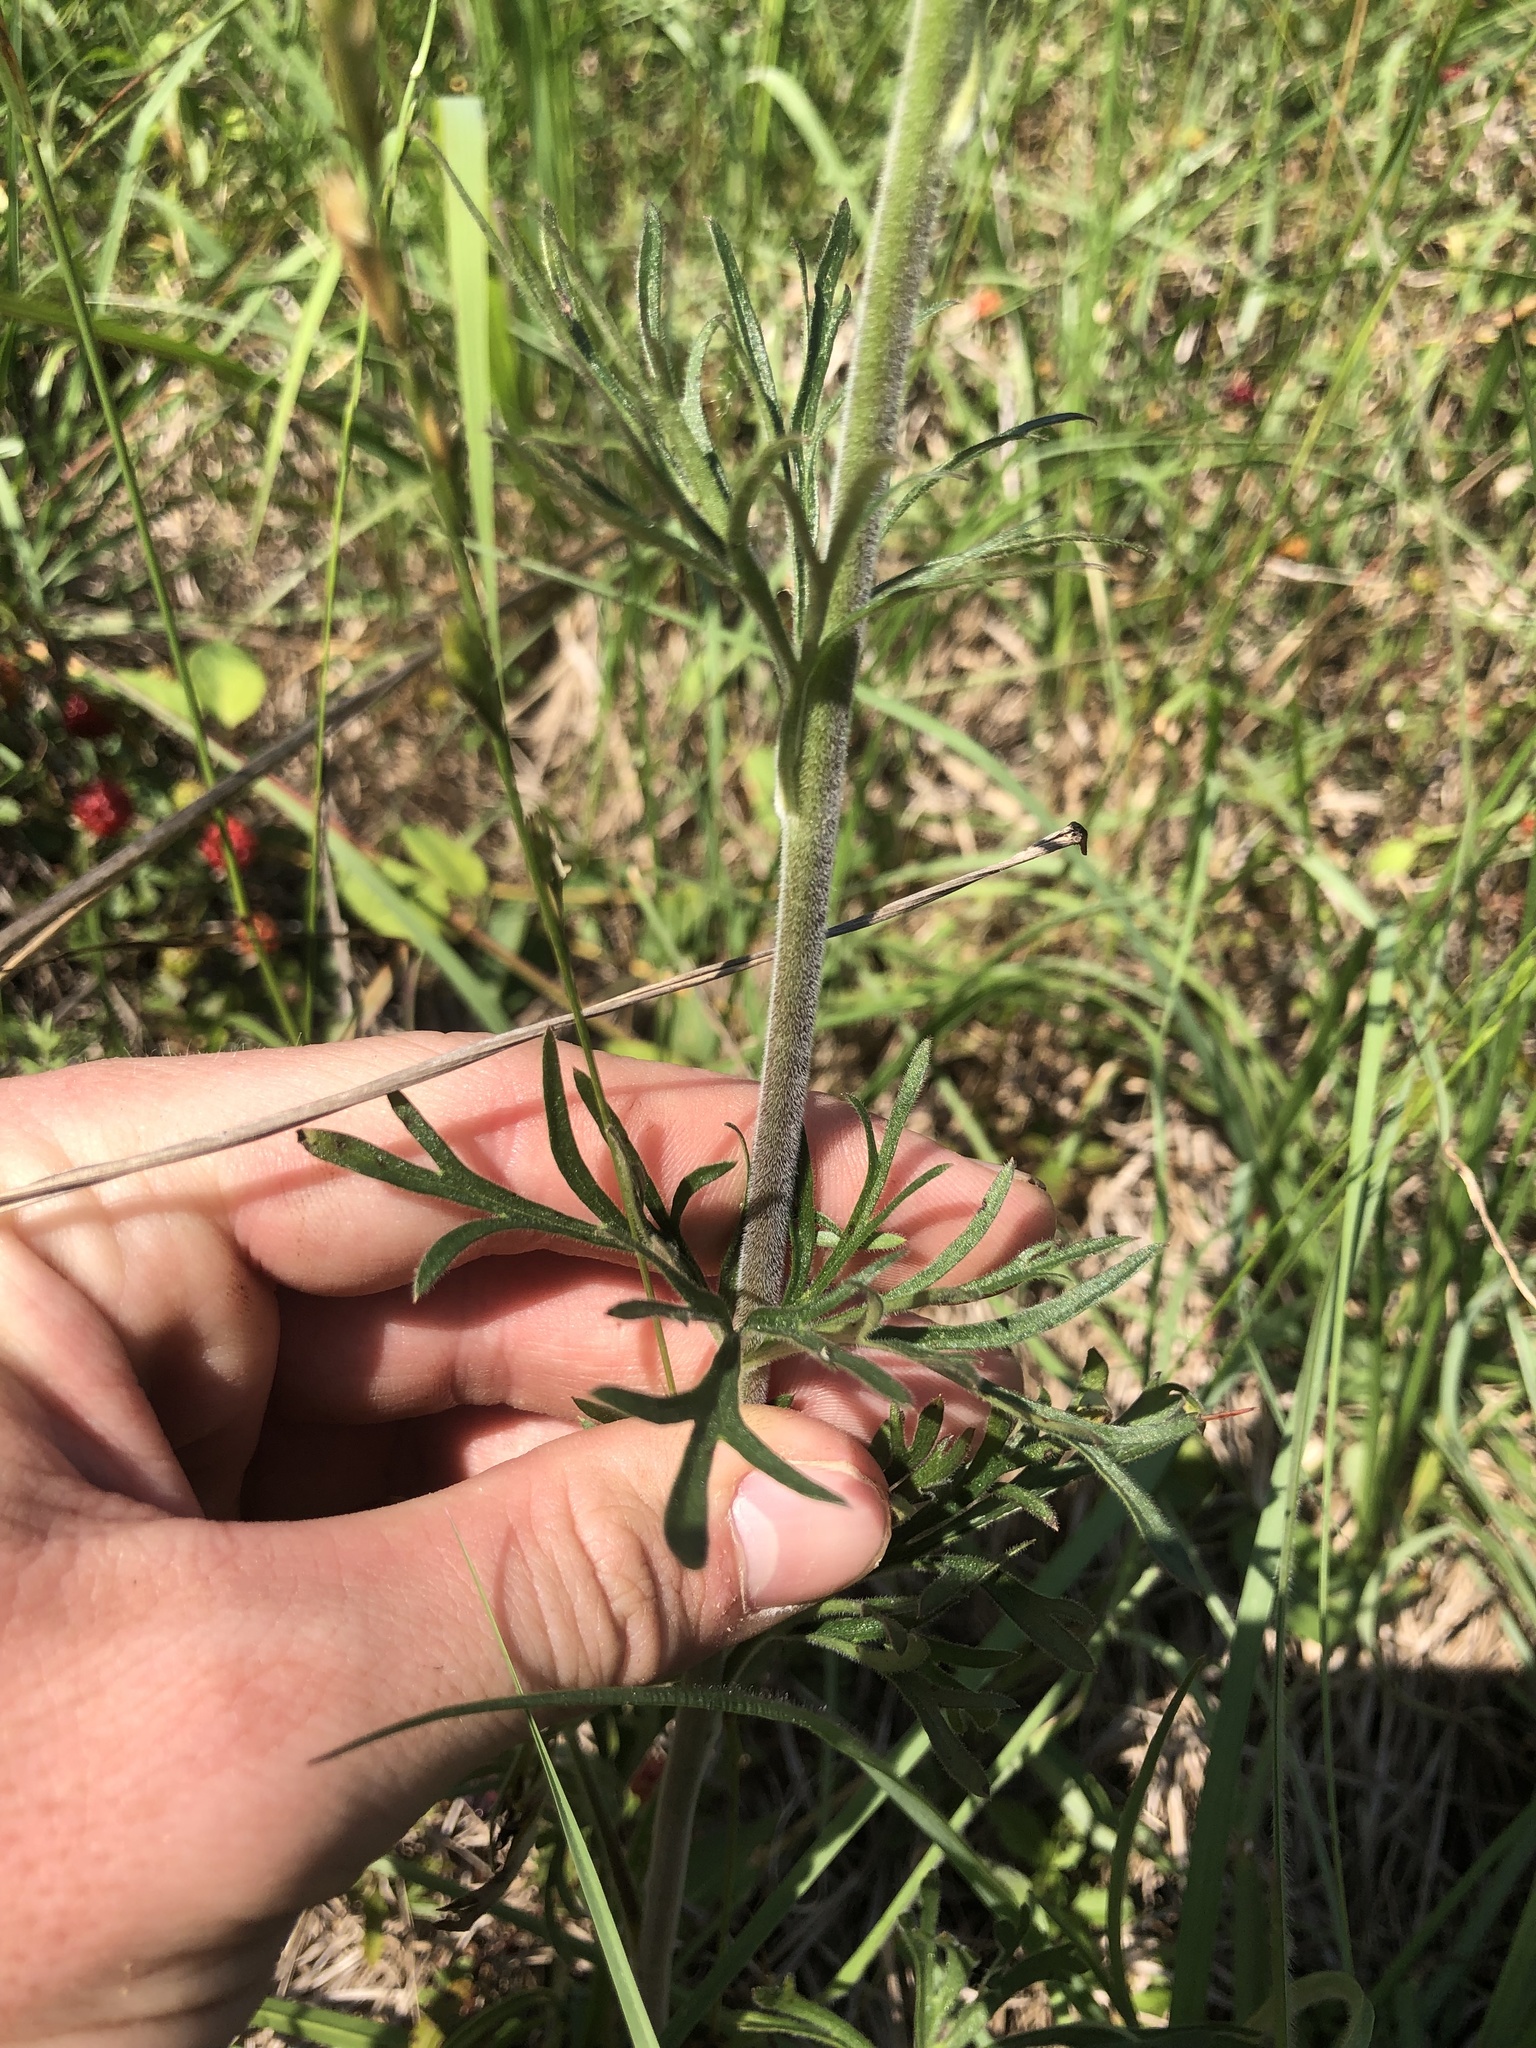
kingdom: Plantae
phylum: Tracheophyta
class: Magnoliopsida
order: Ranunculales
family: Ranunculaceae
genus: Delphinium
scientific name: Delphinium carolinianum
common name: Carolina larkspur
